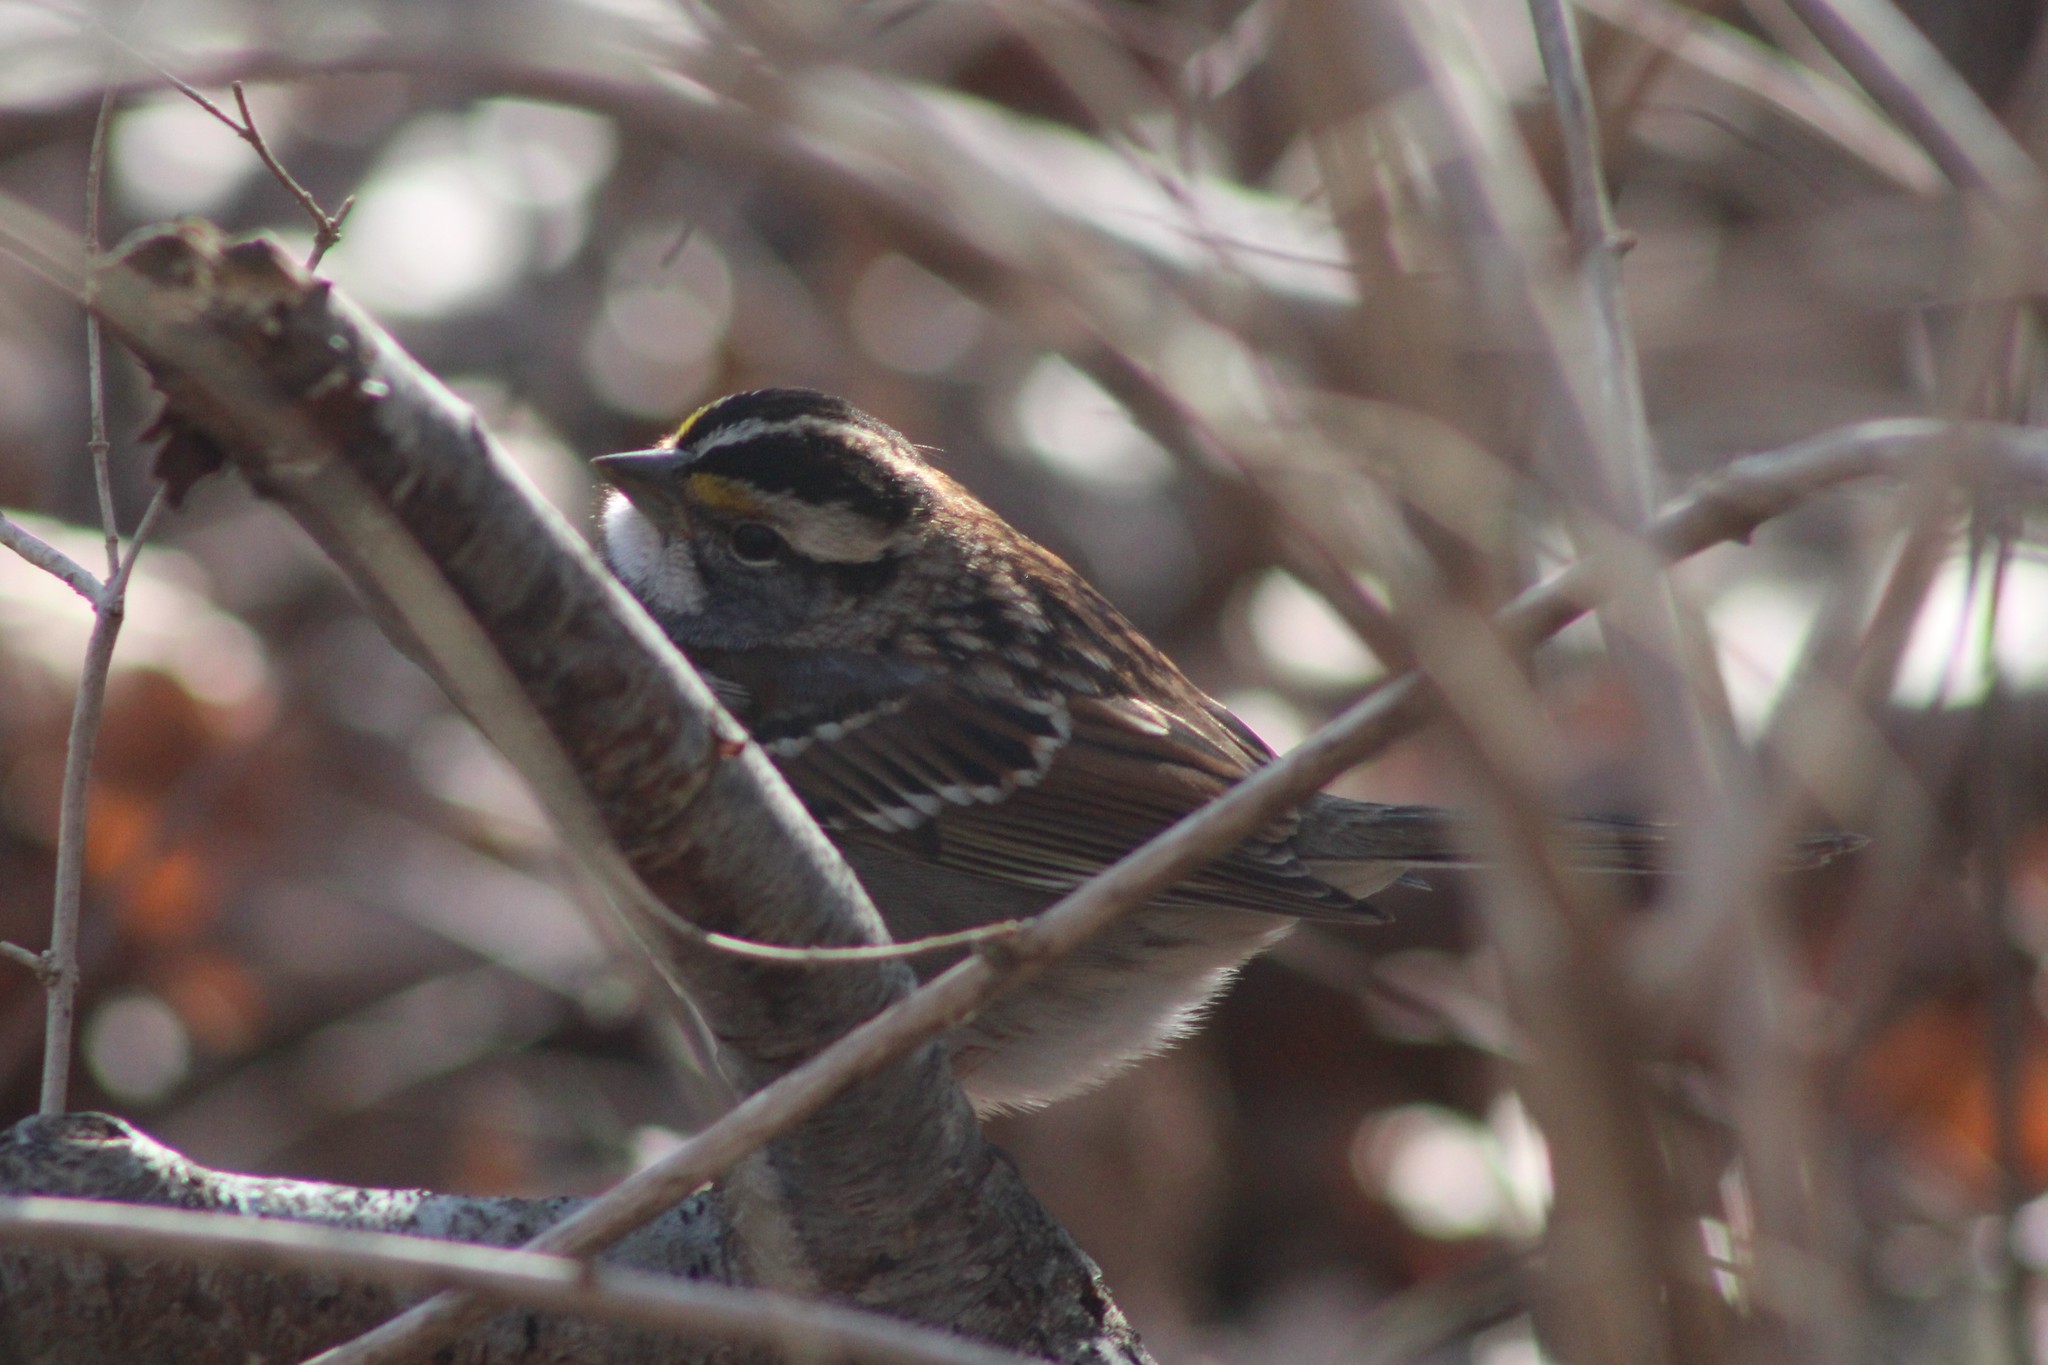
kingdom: Animalia
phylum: Chordata
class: Aves
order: Passeriformes
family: Passerellidae
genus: Zonotrichia
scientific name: Zonotrichia albicollis
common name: White-throated sparrow
